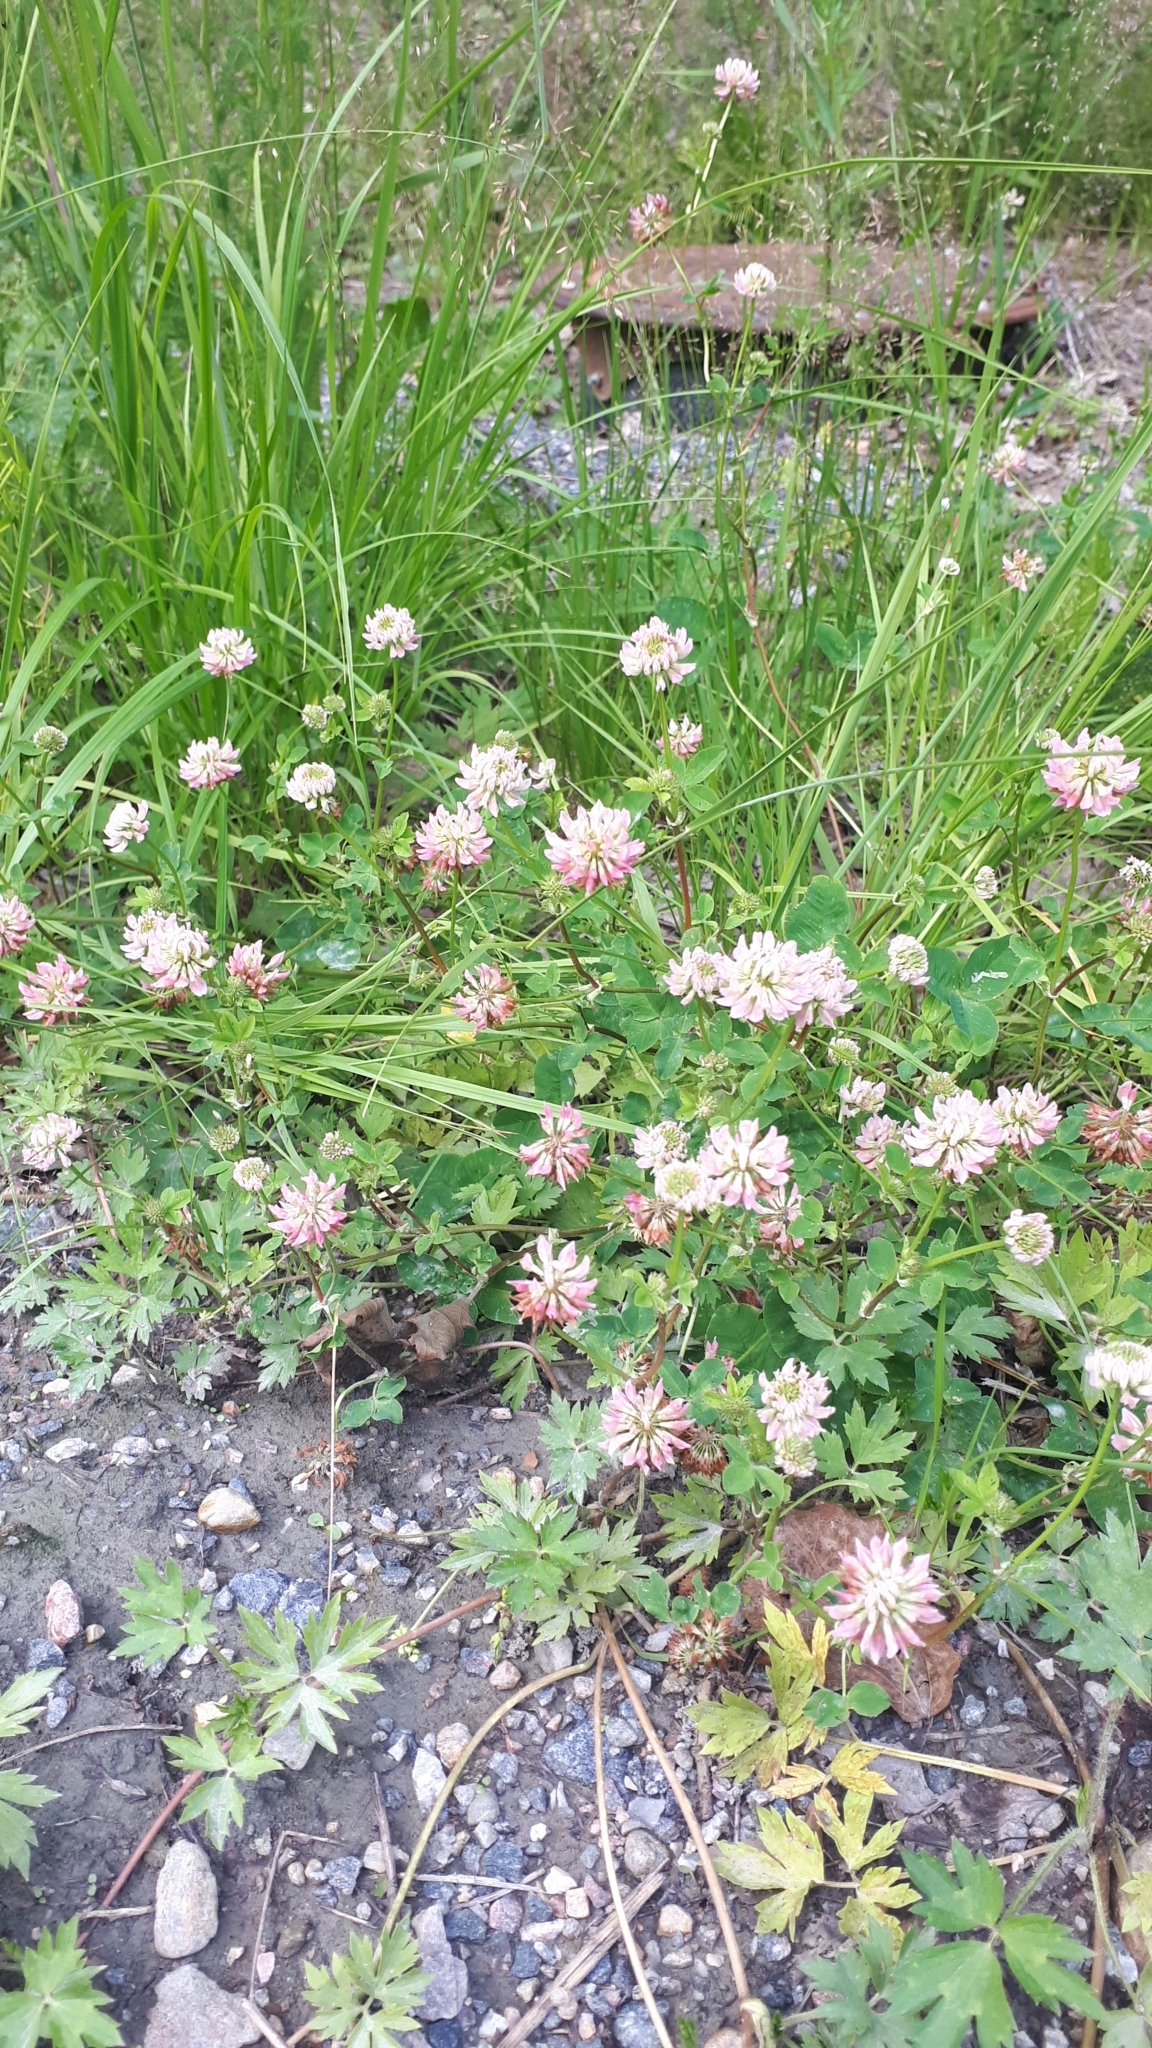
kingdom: Plantae
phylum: Tracheophyta
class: Magnoliopsida
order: Fabales
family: Fabaceae
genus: Trifolium
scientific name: Trifolium hybridum
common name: Alsike clover
